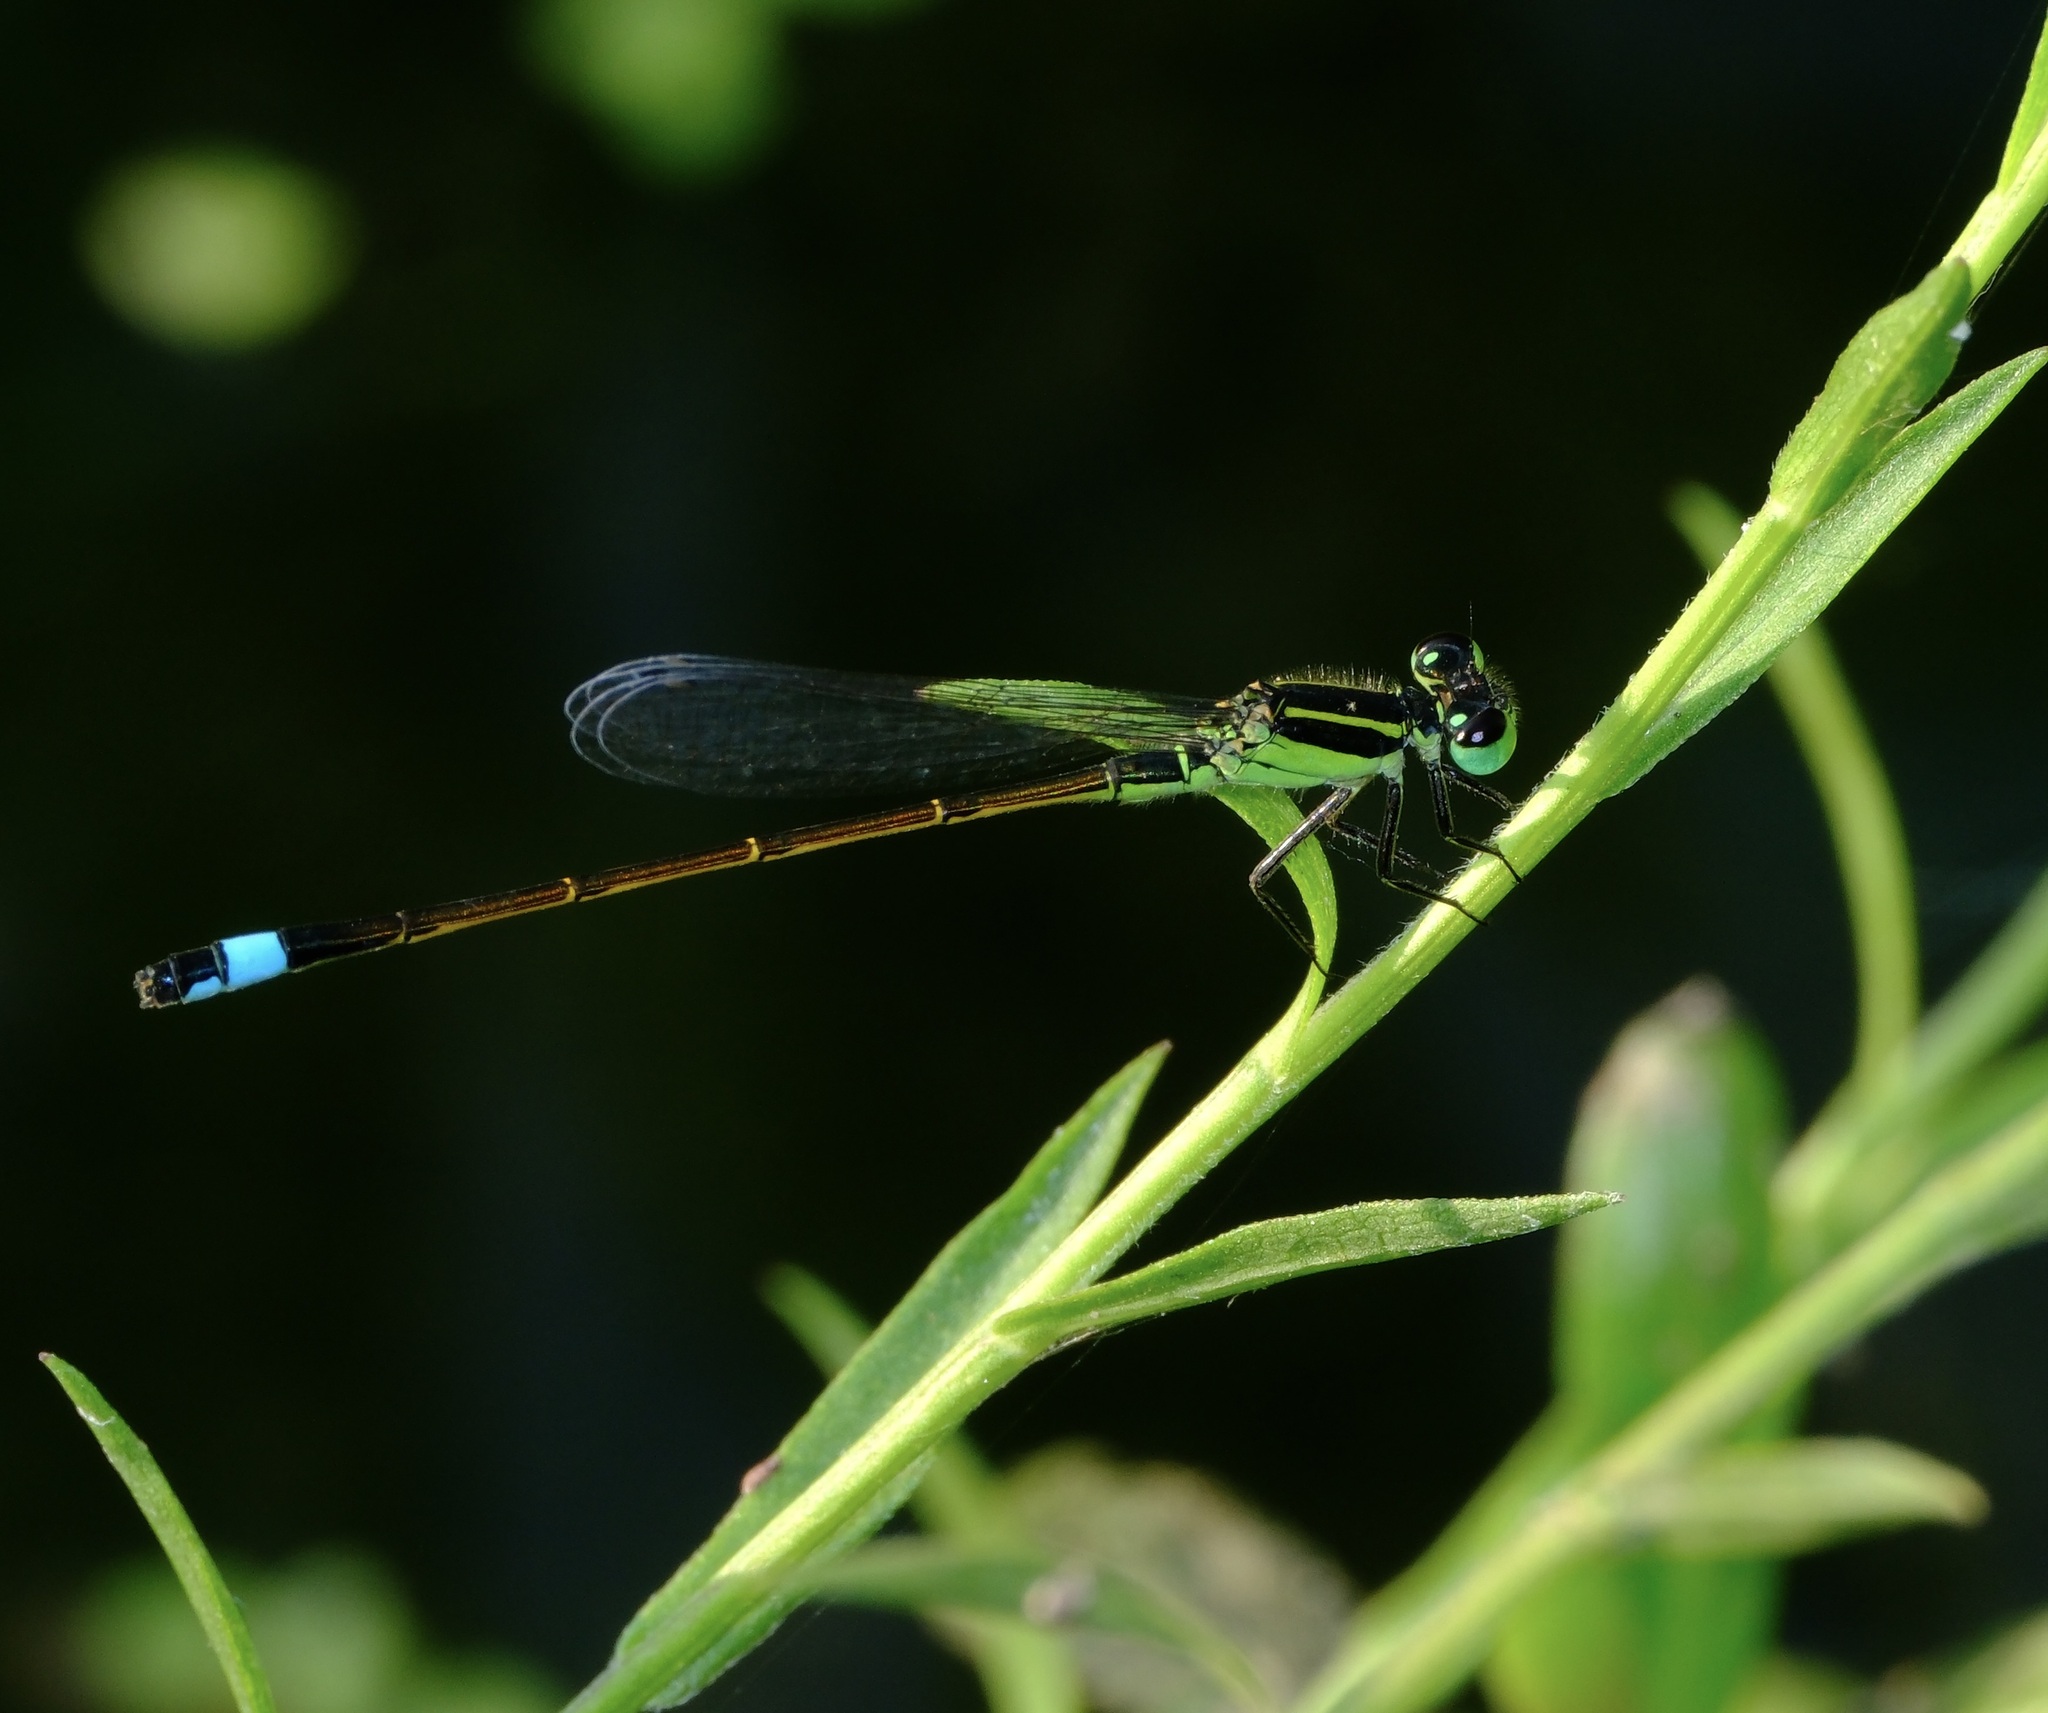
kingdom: Animalia
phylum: Arthropoda
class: Insecta
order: Odonata
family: Coenagrionidae
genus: Ischnura
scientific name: Ischnura ramburii
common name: Rambur's forktail
